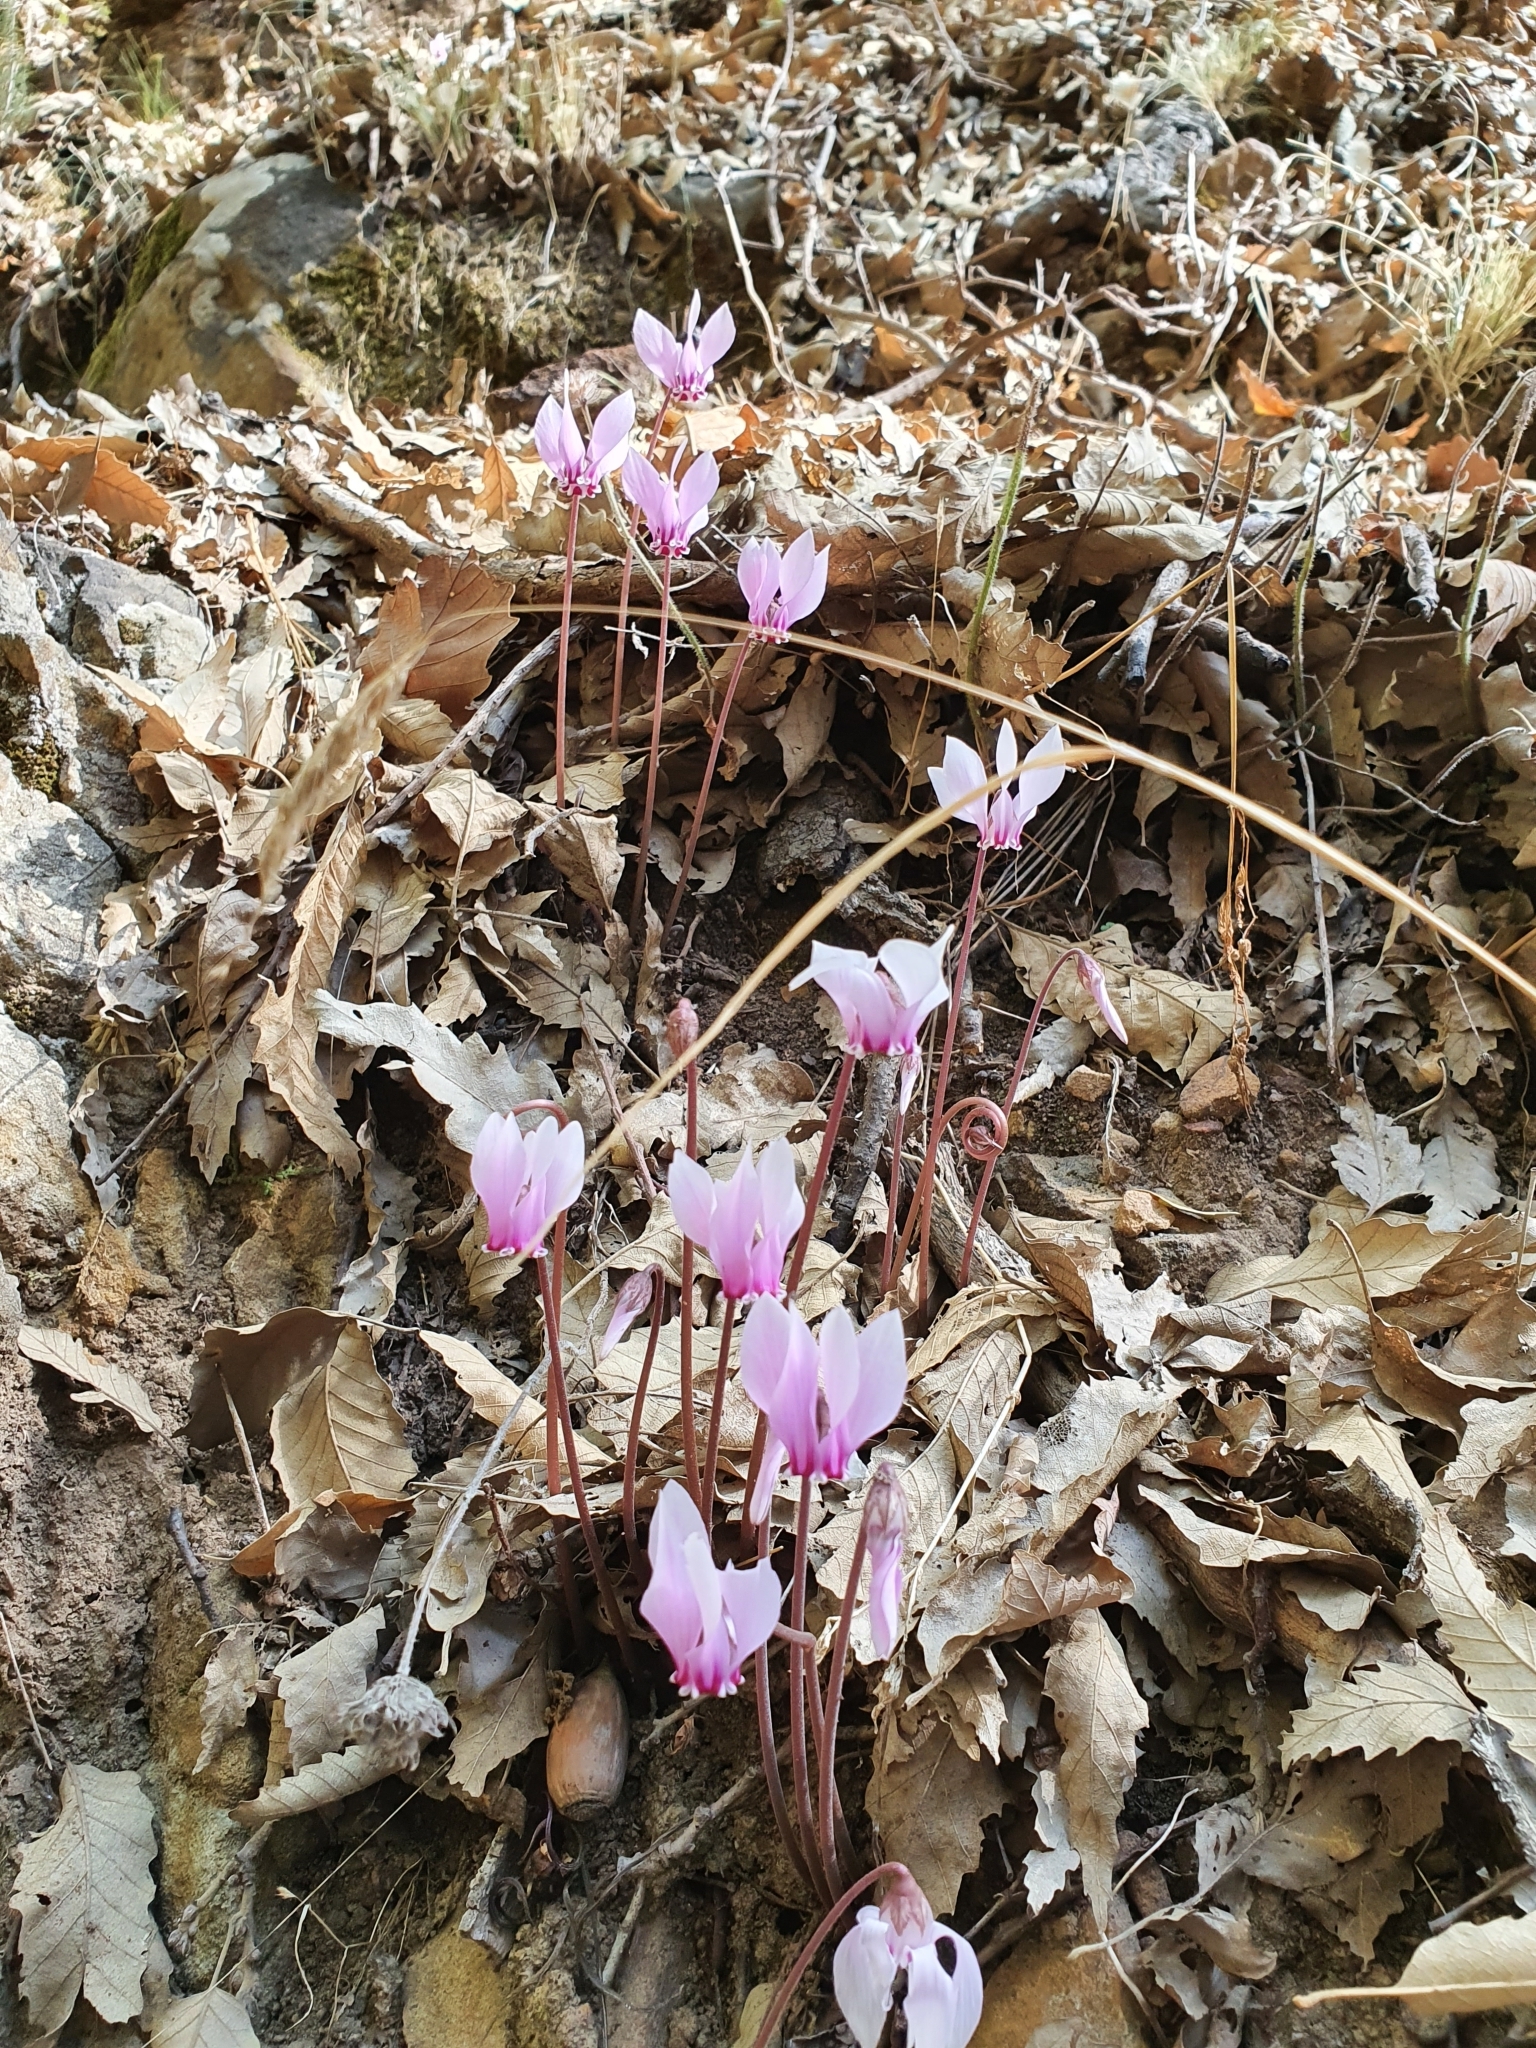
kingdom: Plantae
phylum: Tracheophyta
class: Magnoliopsida
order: Ericales
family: Primulaceae
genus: Cyclamen
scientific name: Cyclamen africanum
